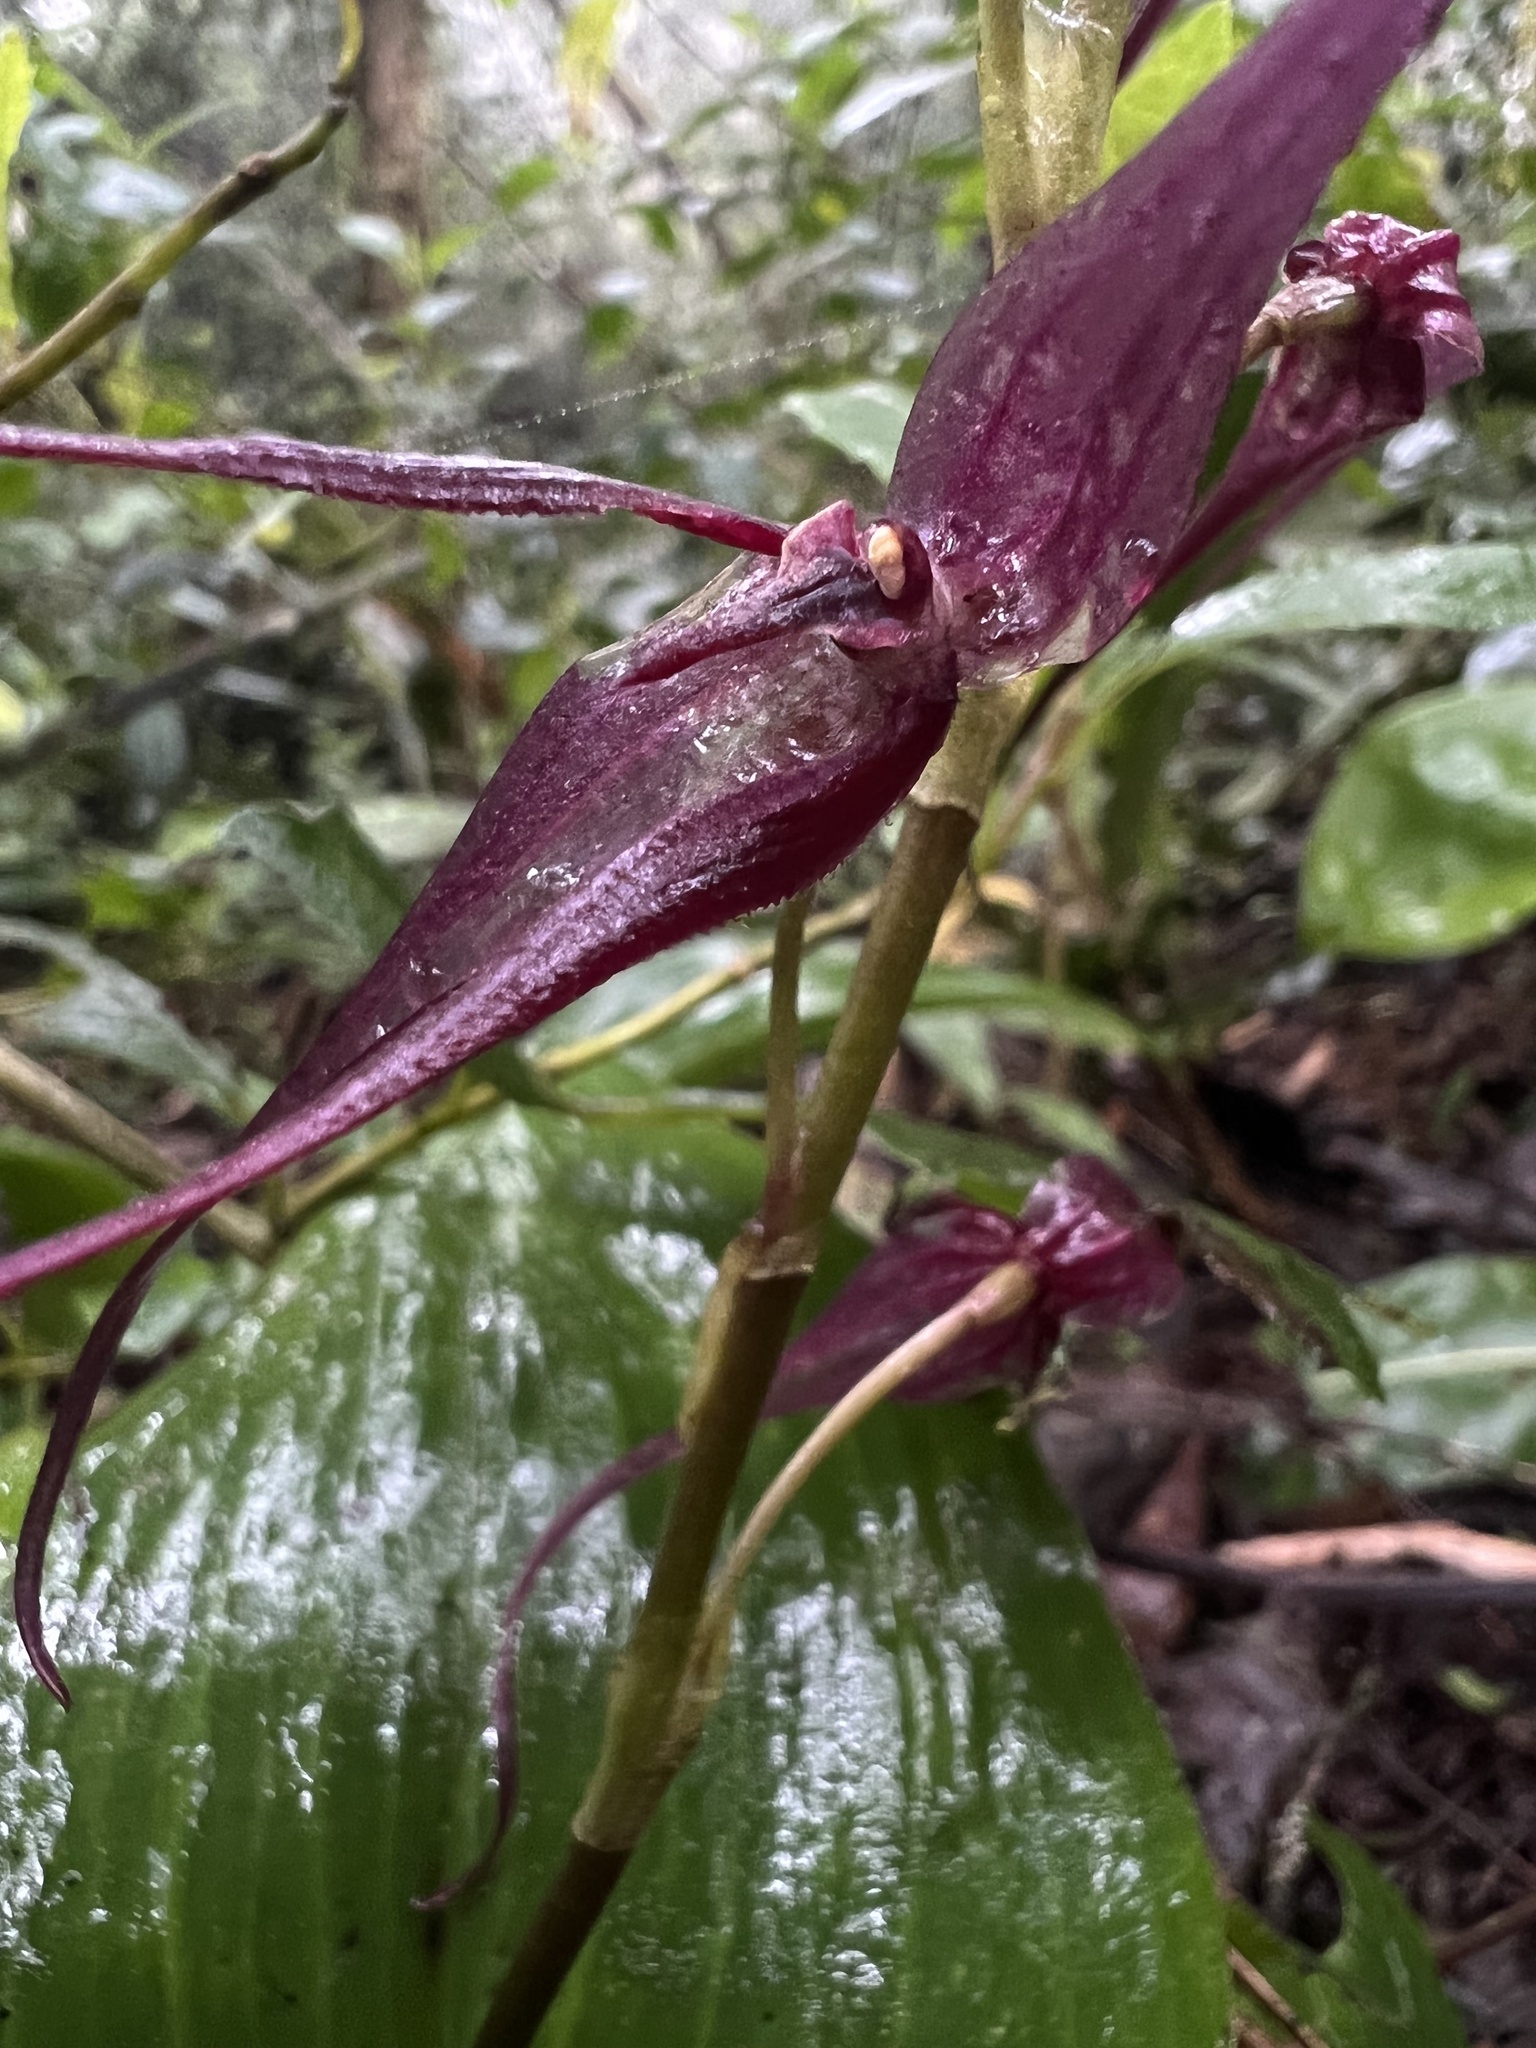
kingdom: Plantae
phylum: Tracheophyta
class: Liliopsida
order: Asparagales
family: Orchidaceae
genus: Pleurothallis
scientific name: Pleurothallis phalangifera
